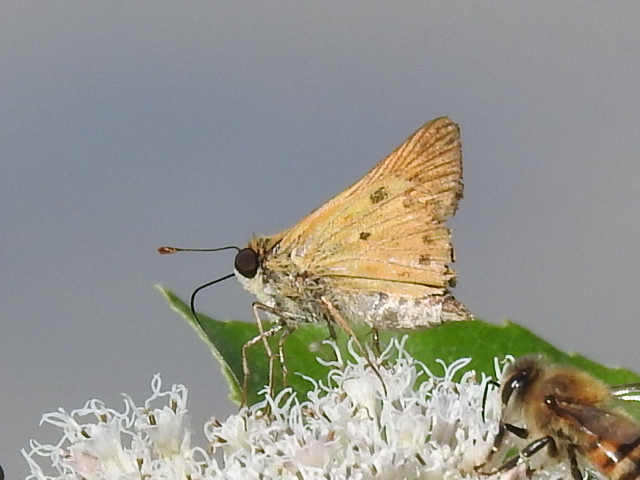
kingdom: Animalia
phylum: Arthropoda
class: Insecta
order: Lepidoptera
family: Hesperiidae
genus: Hylephila
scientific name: Hylephila phyleus
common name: Fiery skipper
